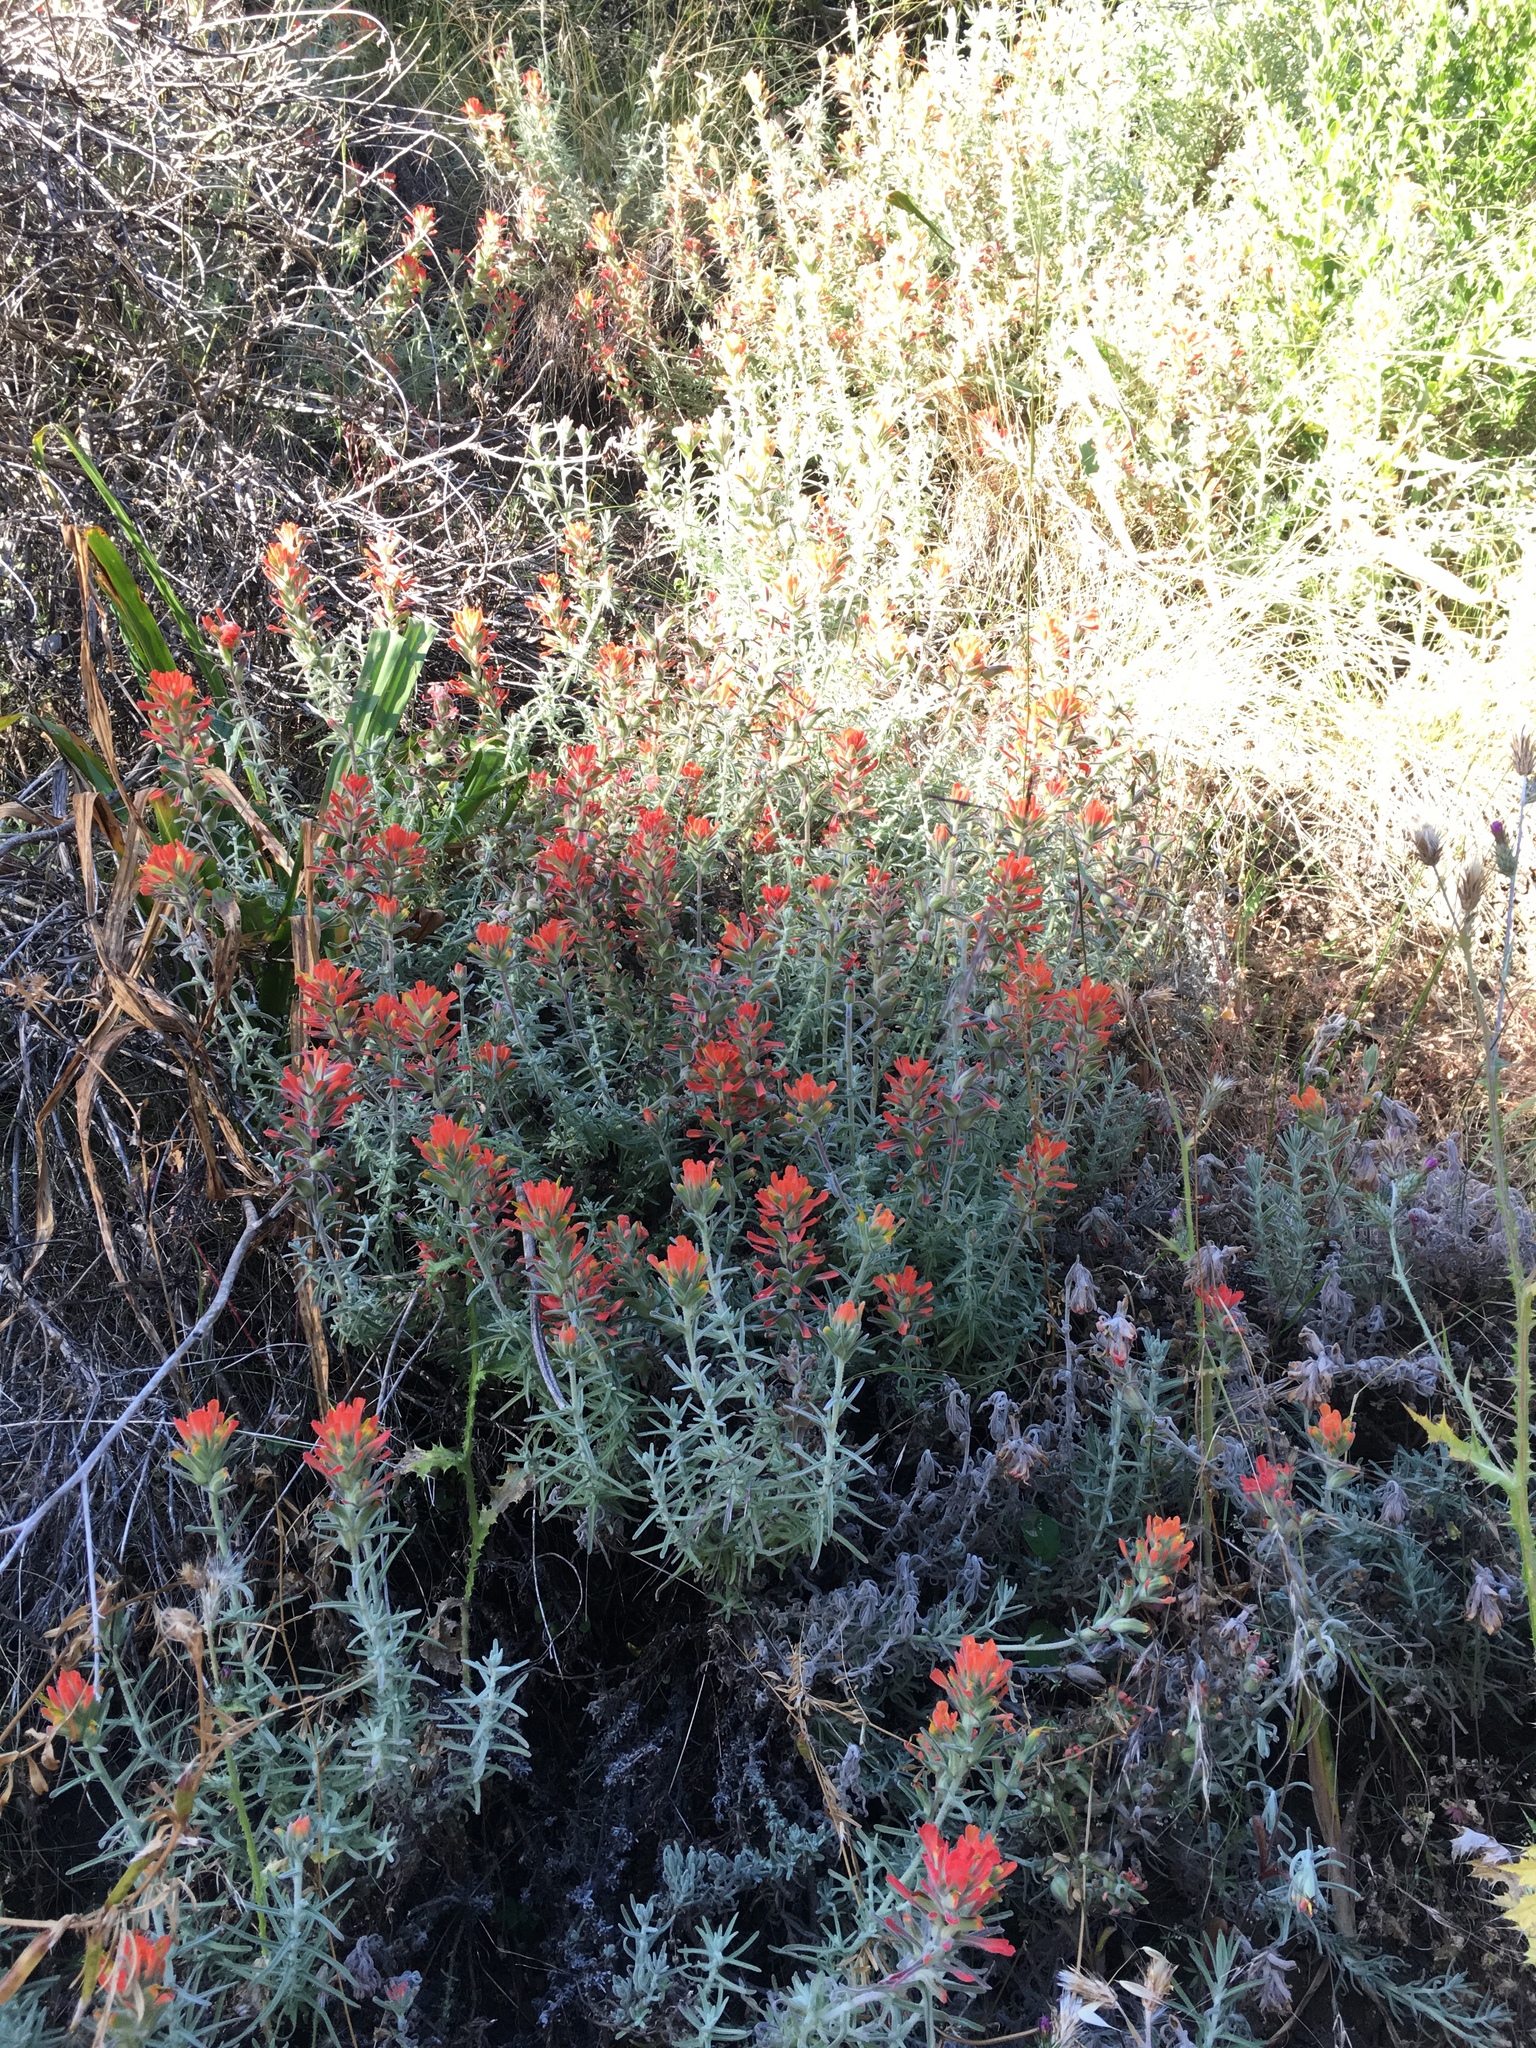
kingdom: Plantae
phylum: Tracheophyta
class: Magnoliopsida
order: Lamiales
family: Orobanchaceae
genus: Castilleja
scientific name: Castilleja foliolosa
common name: Woolly indian paintbrush
